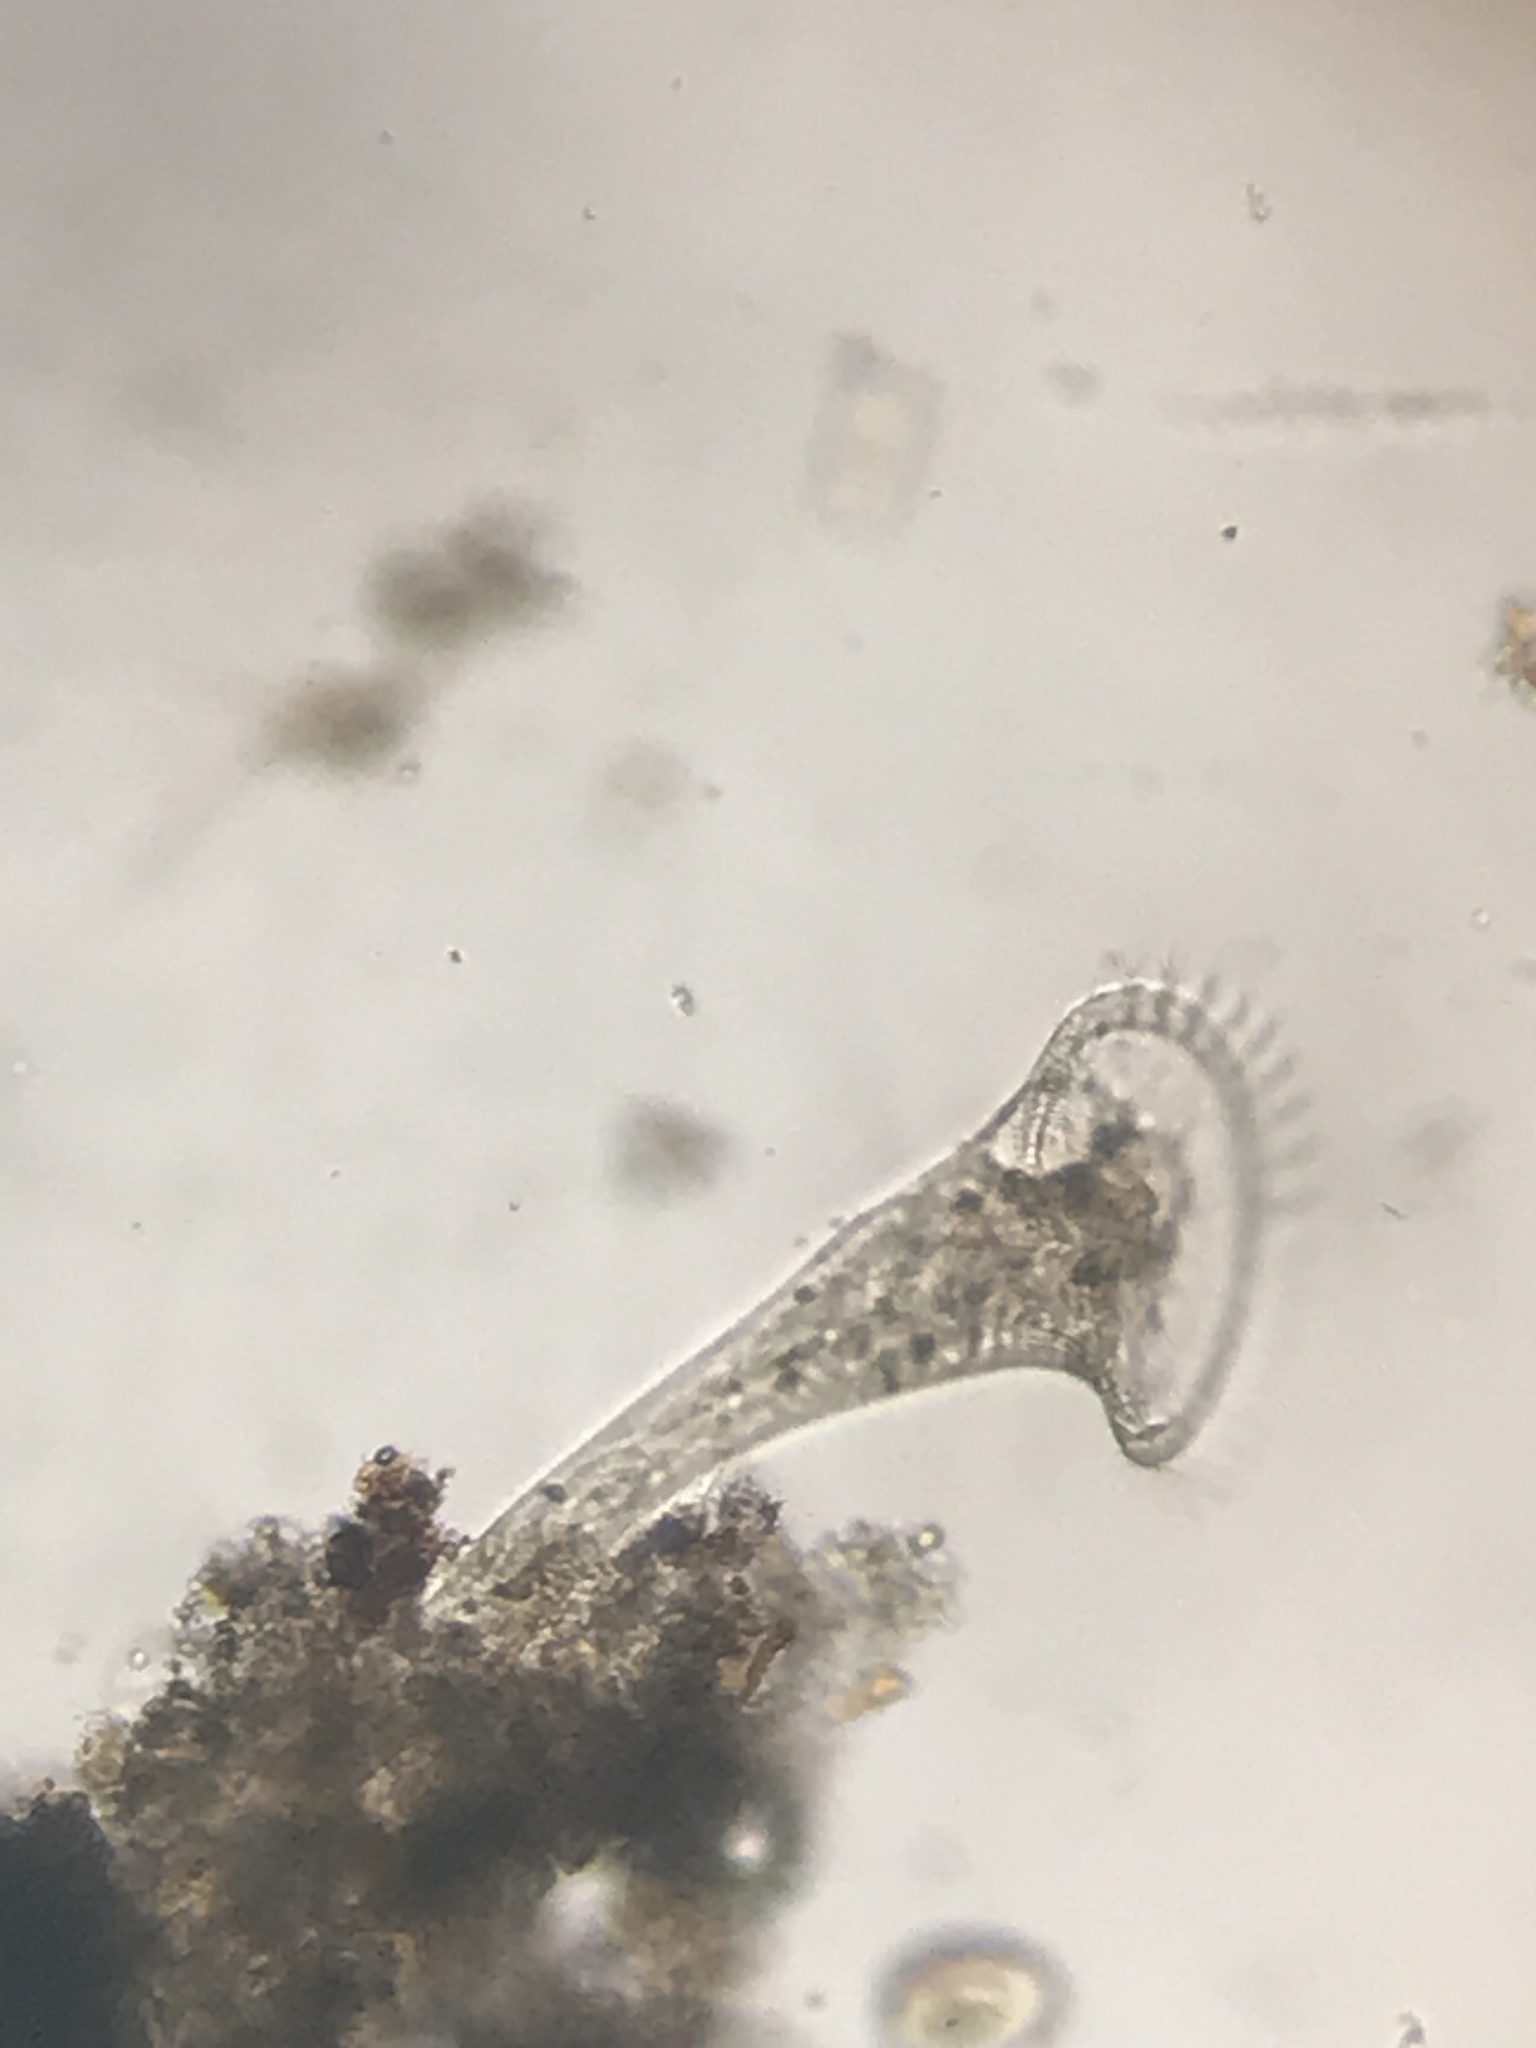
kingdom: Chromista
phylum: Ciliophora
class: Heterotrichea
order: Heterotrichida
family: Stentoridae
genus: Stentor
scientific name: Stentor
